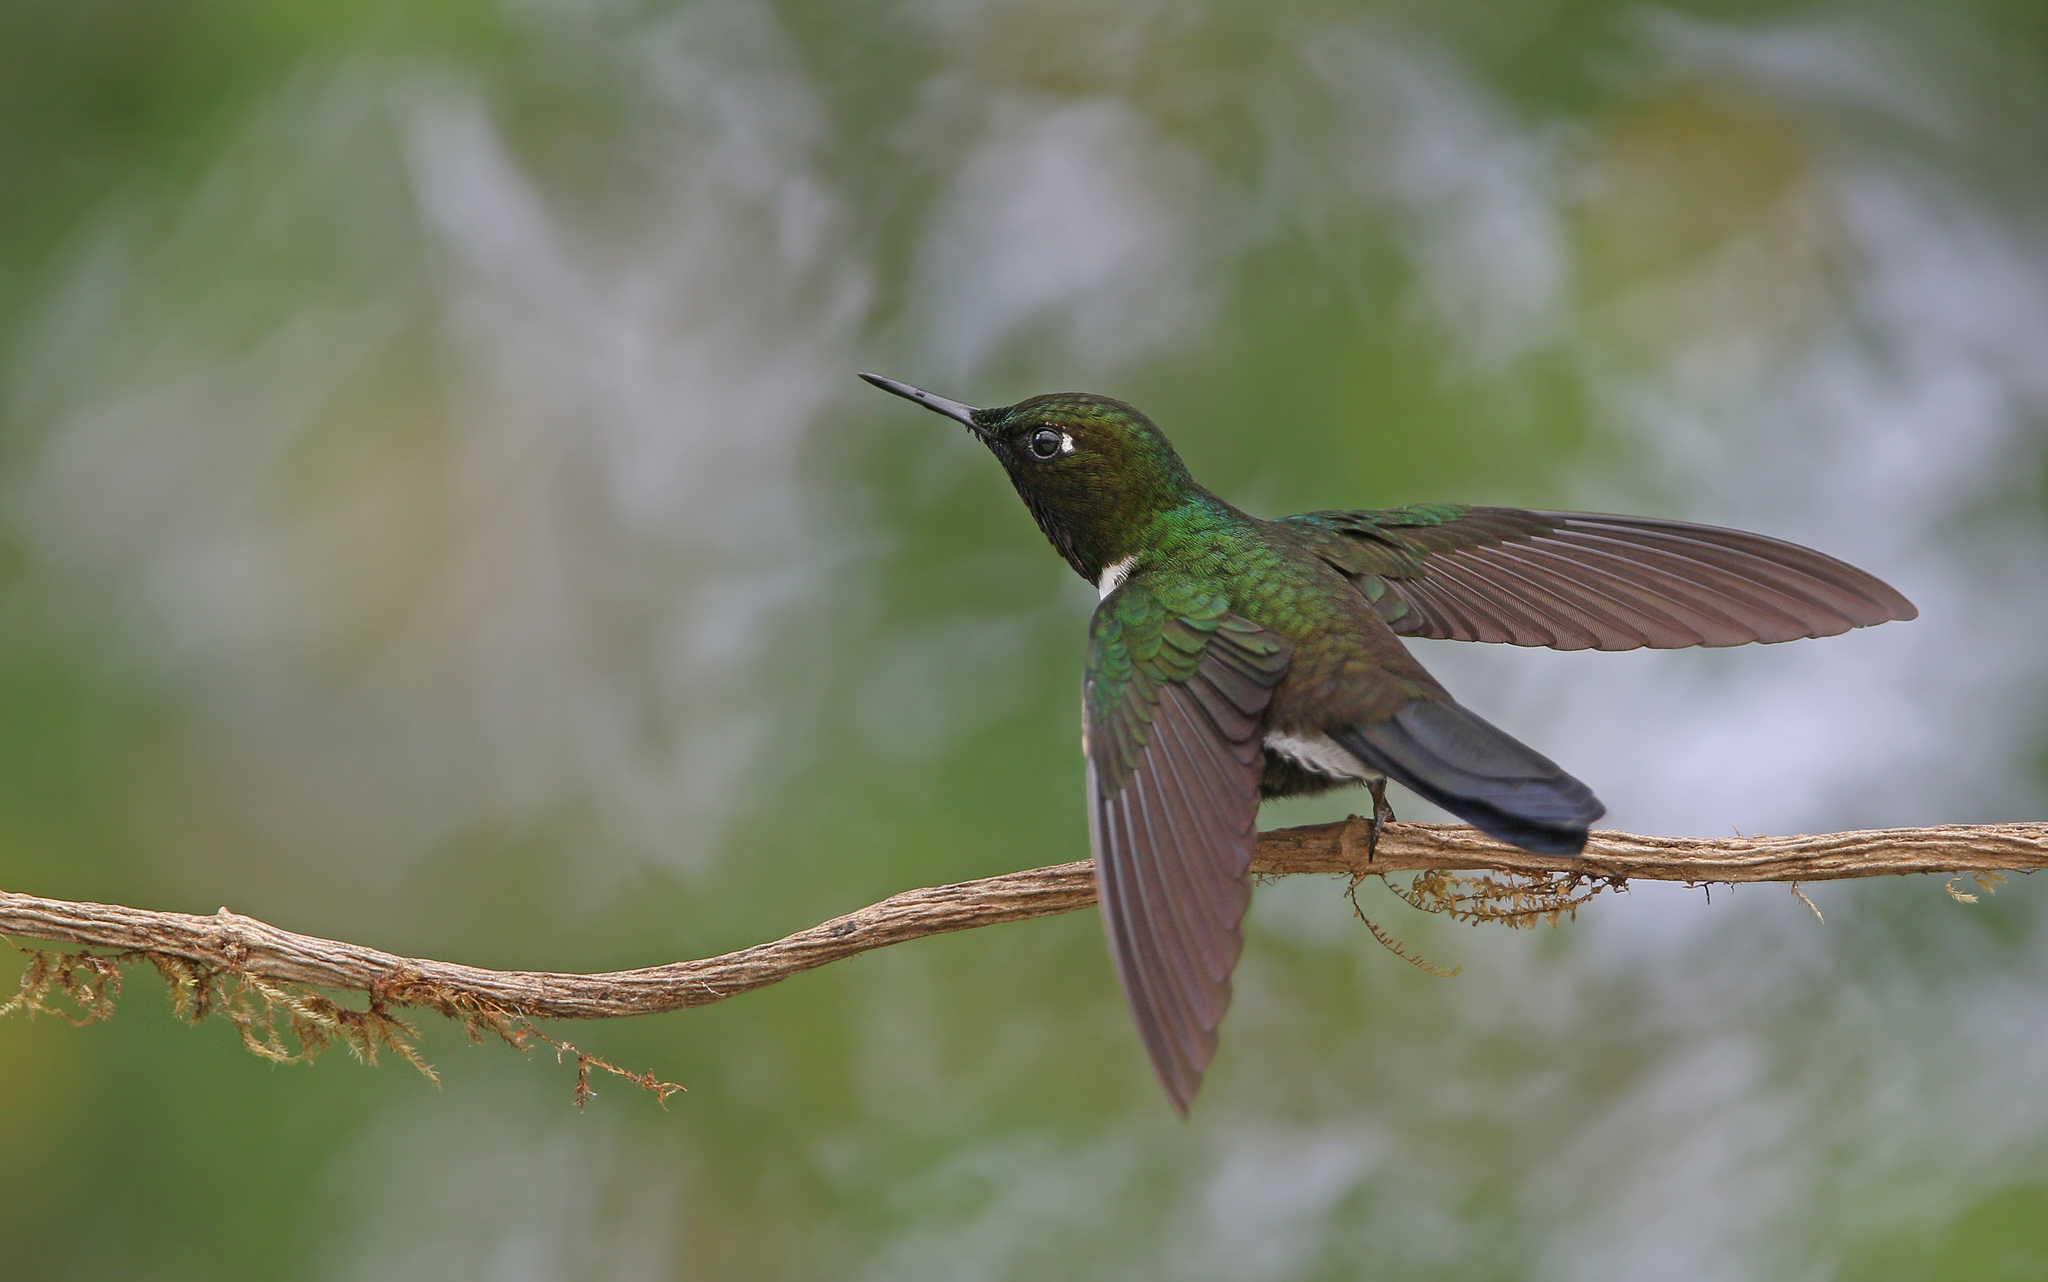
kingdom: Animalia
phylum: Chordata
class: Aves
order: Apodiformes
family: Trochilidae
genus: Heliangelus
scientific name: Heliangelus strophianus
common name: Gorgeted sunangel
